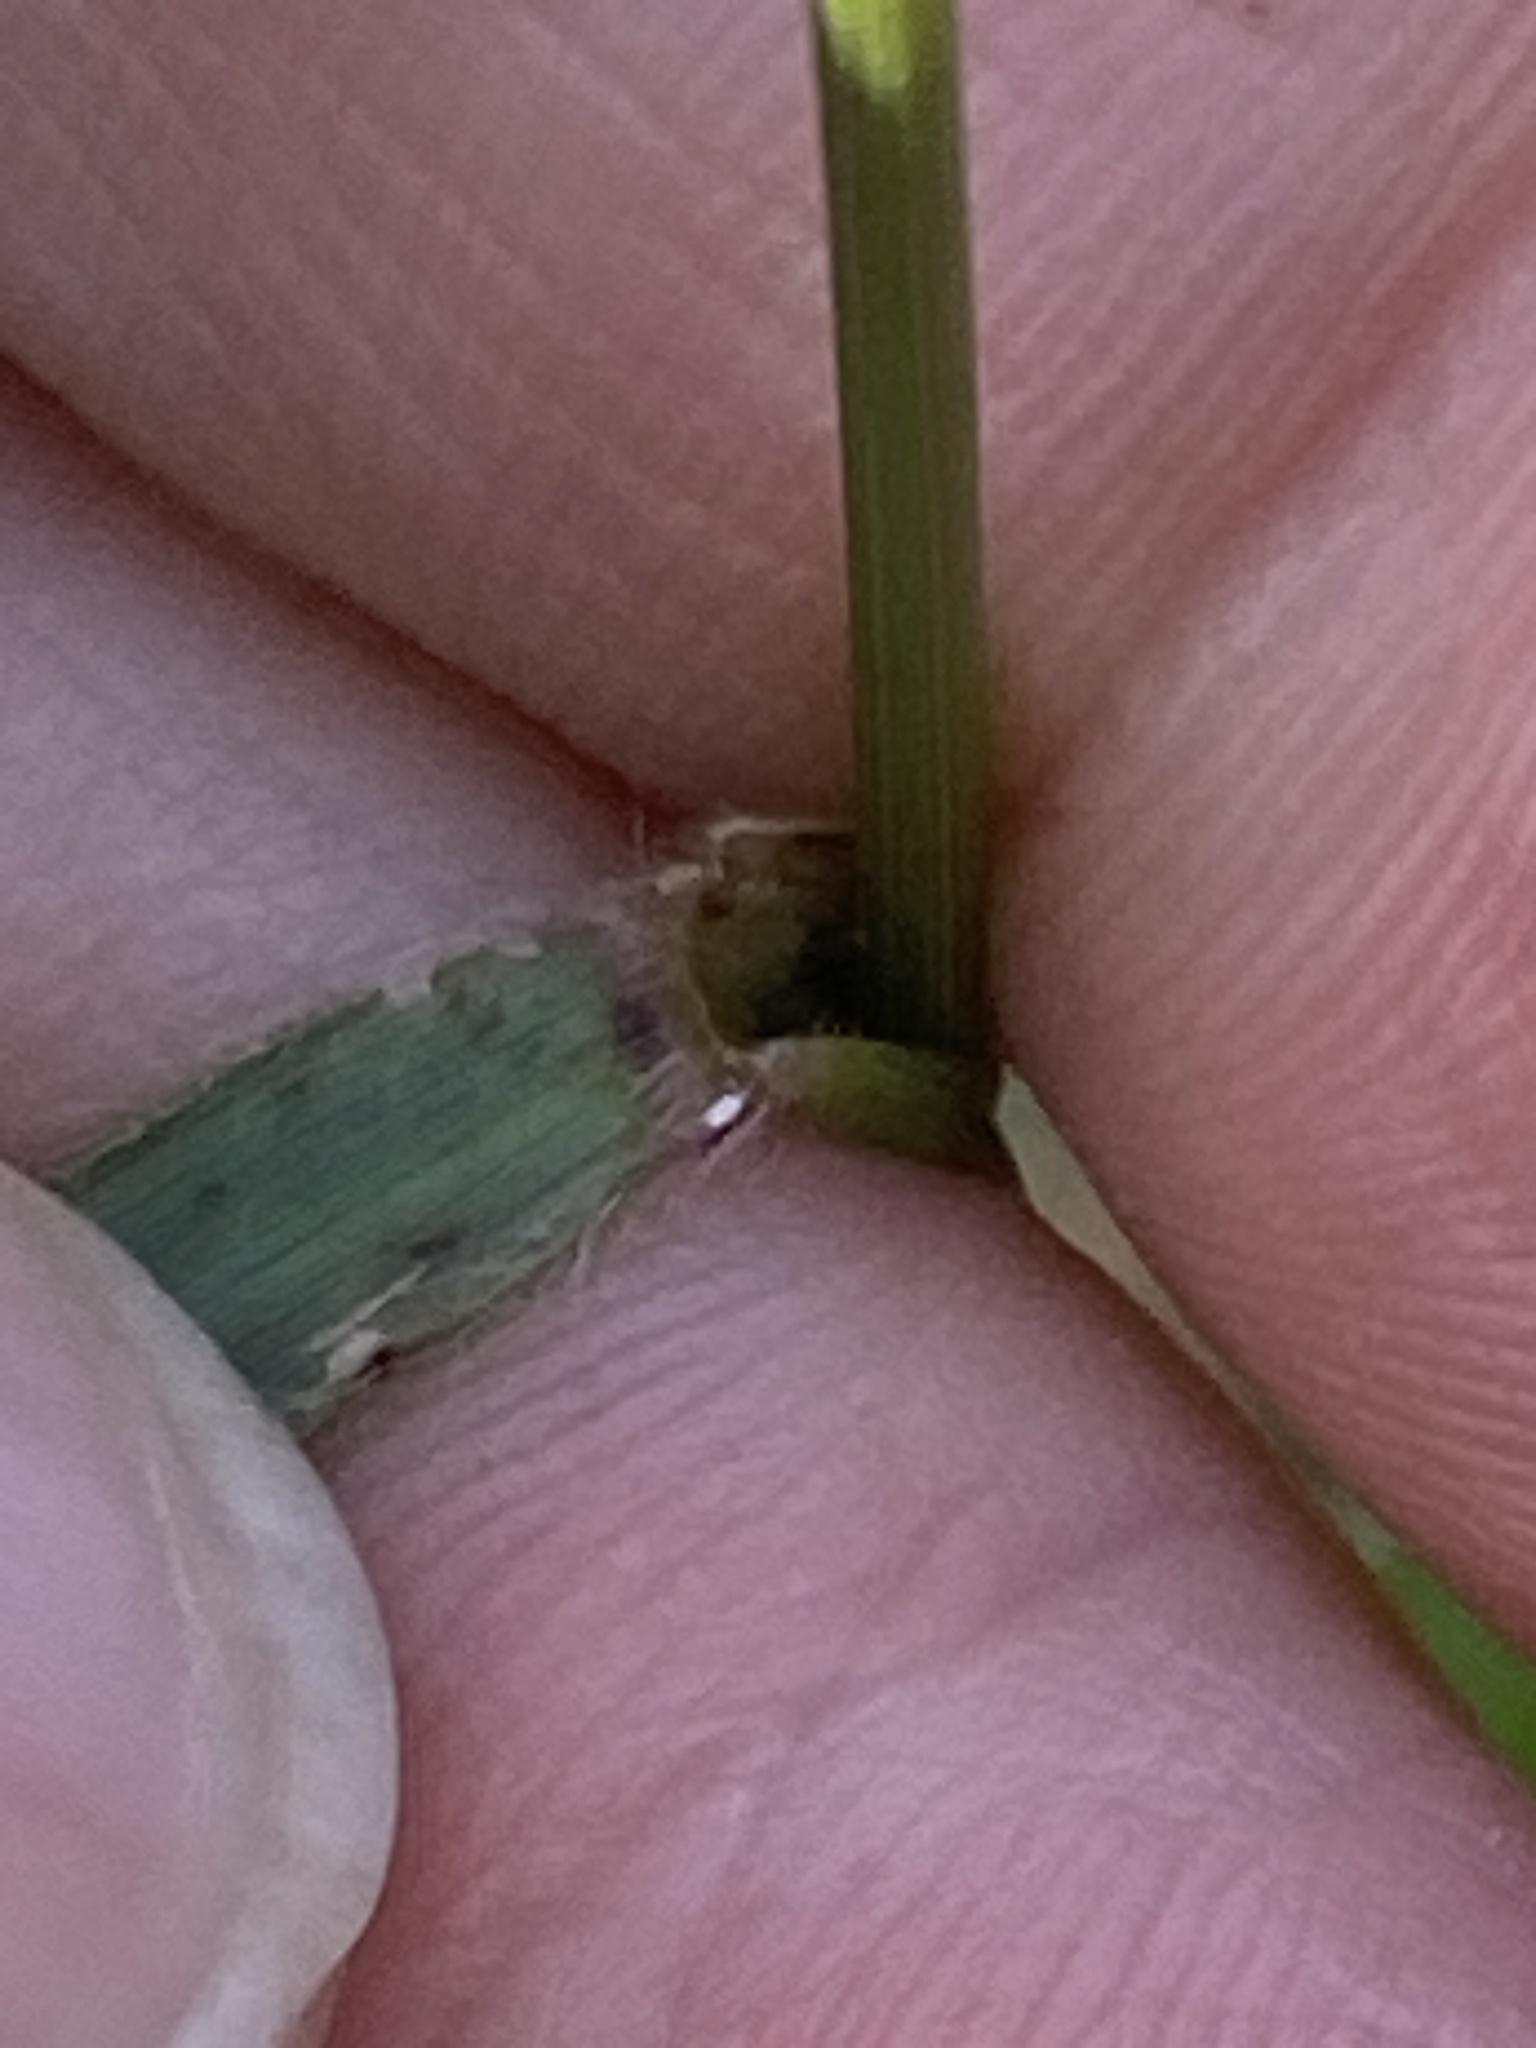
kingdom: Plantae
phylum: Tracheophyta
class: Liliopsida
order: Poales
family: Poaceae
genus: Alloteropsis
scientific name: Alloteropsis semialata
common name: Cockatoo grass
